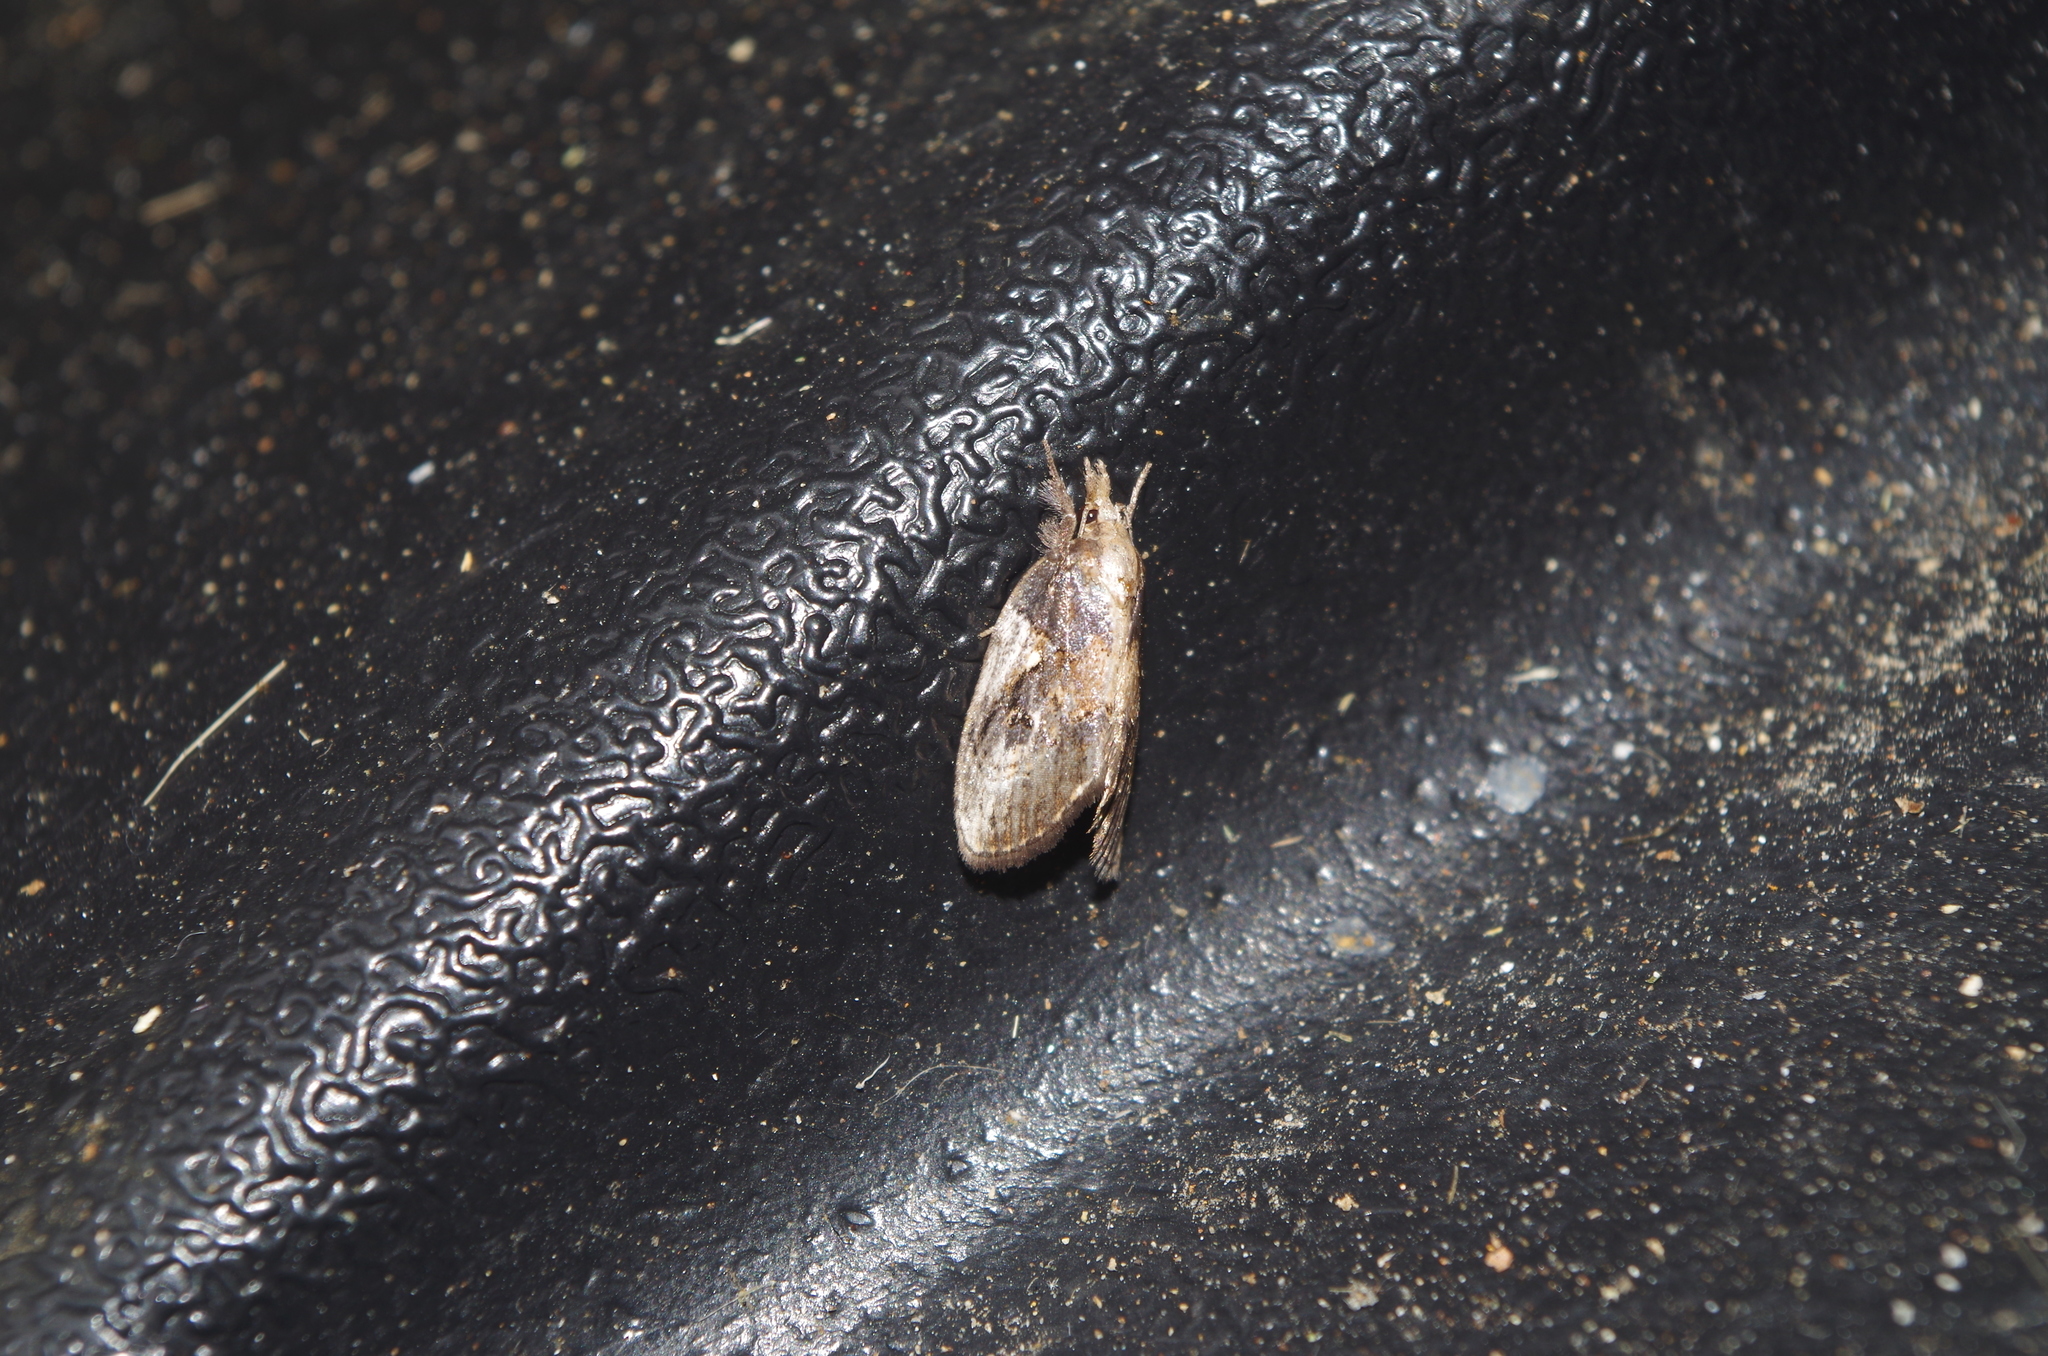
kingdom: Animalia
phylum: Arthropoda
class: Insecta
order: Lepidoptera
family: Nolidae
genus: Selepa
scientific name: Selepa molybdea
